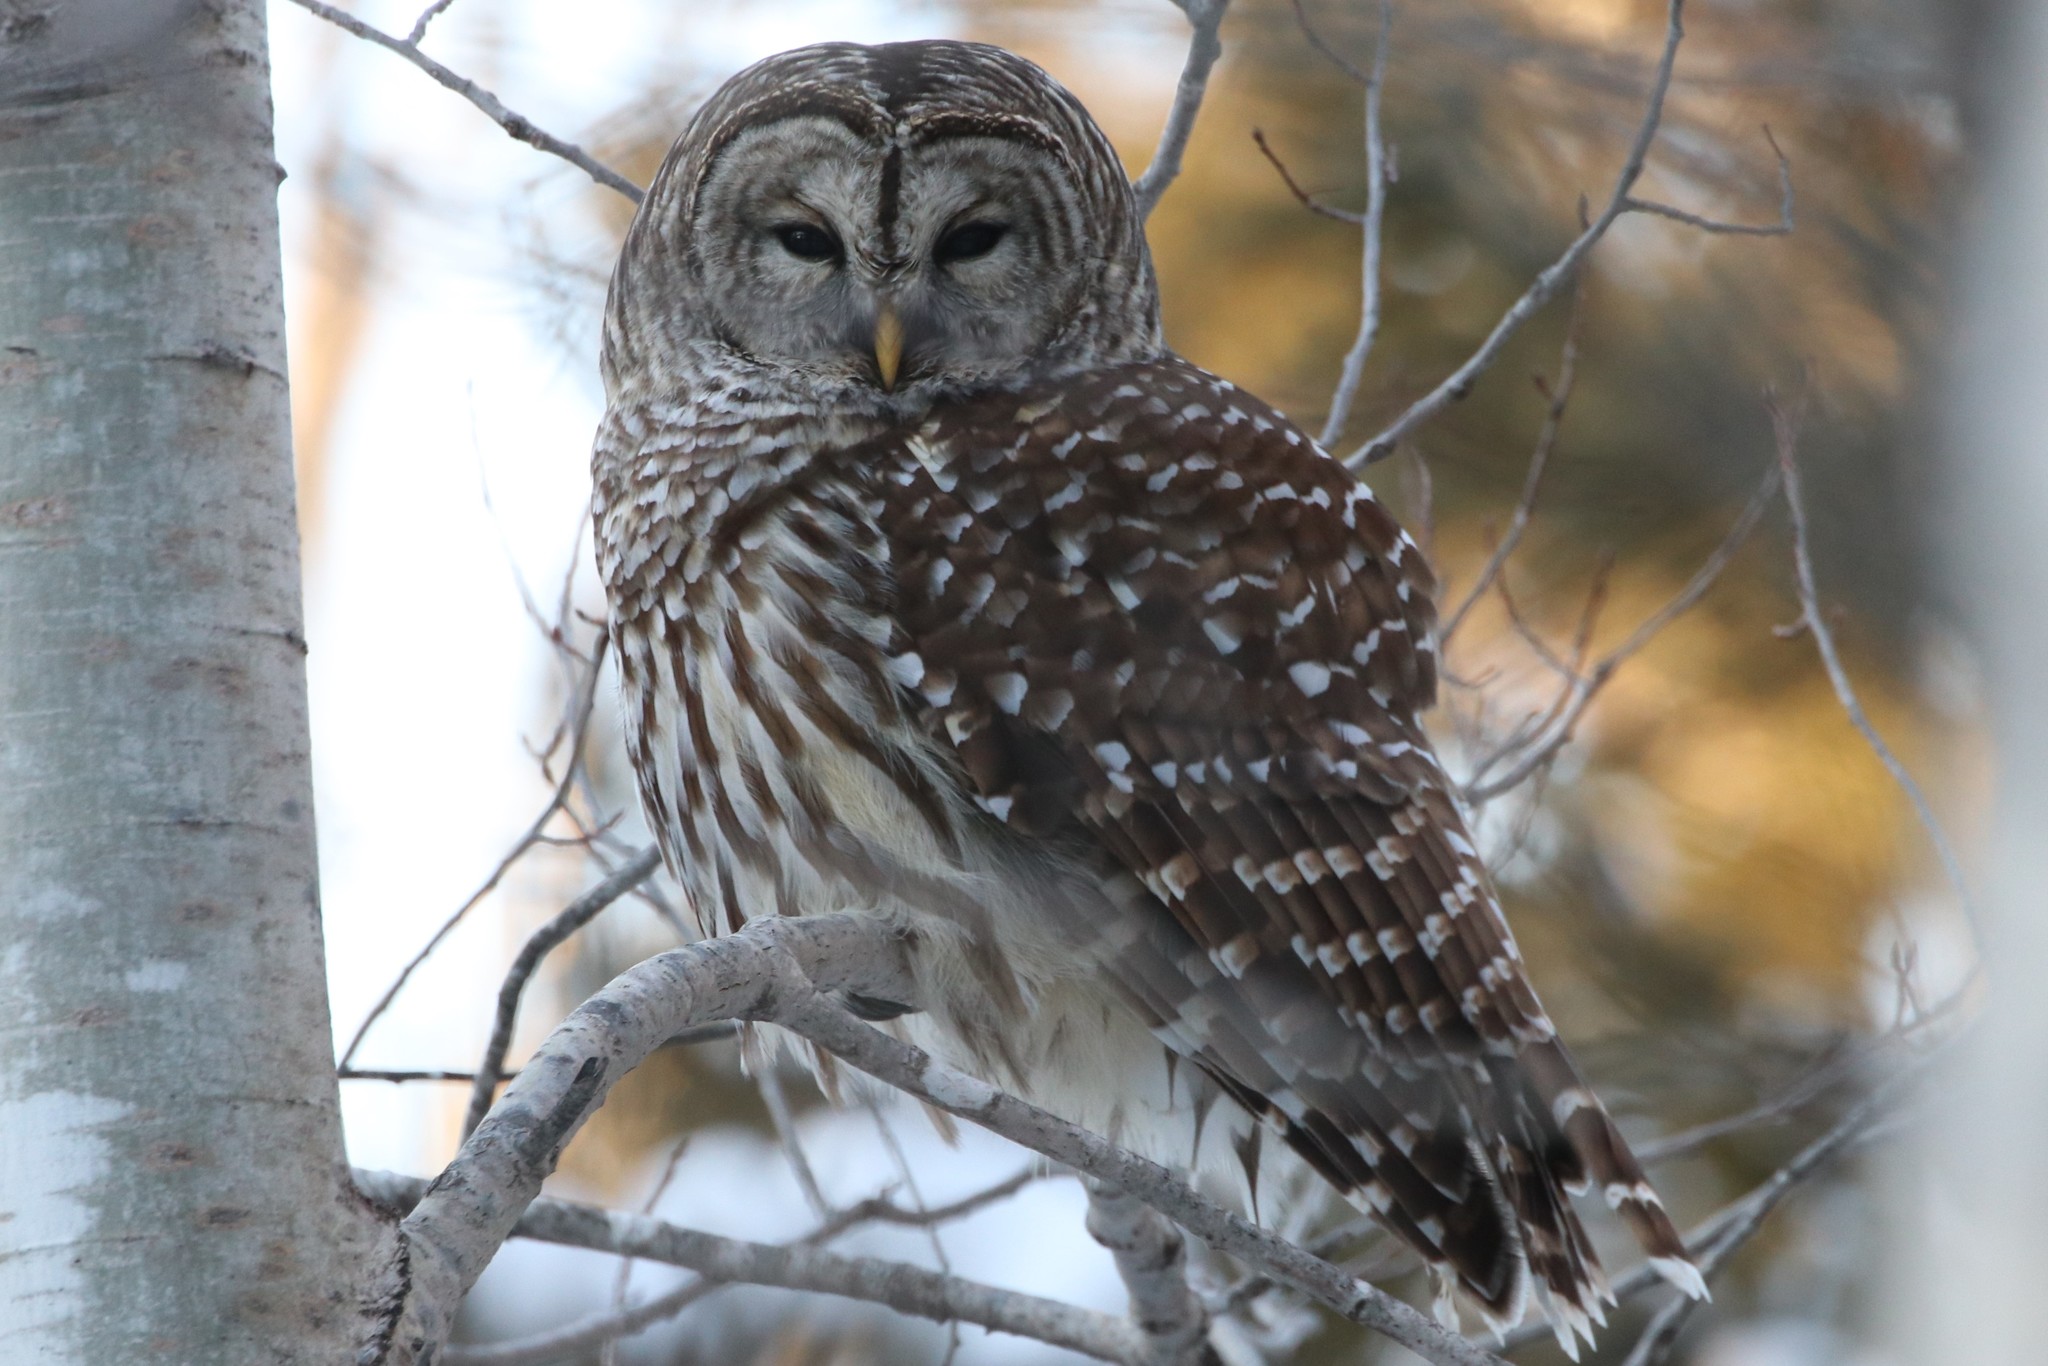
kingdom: Animalia
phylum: Chordata
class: Aves
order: Strigiformes
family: Strigidae
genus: Strix
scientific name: Strix varia
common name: Barred owl
